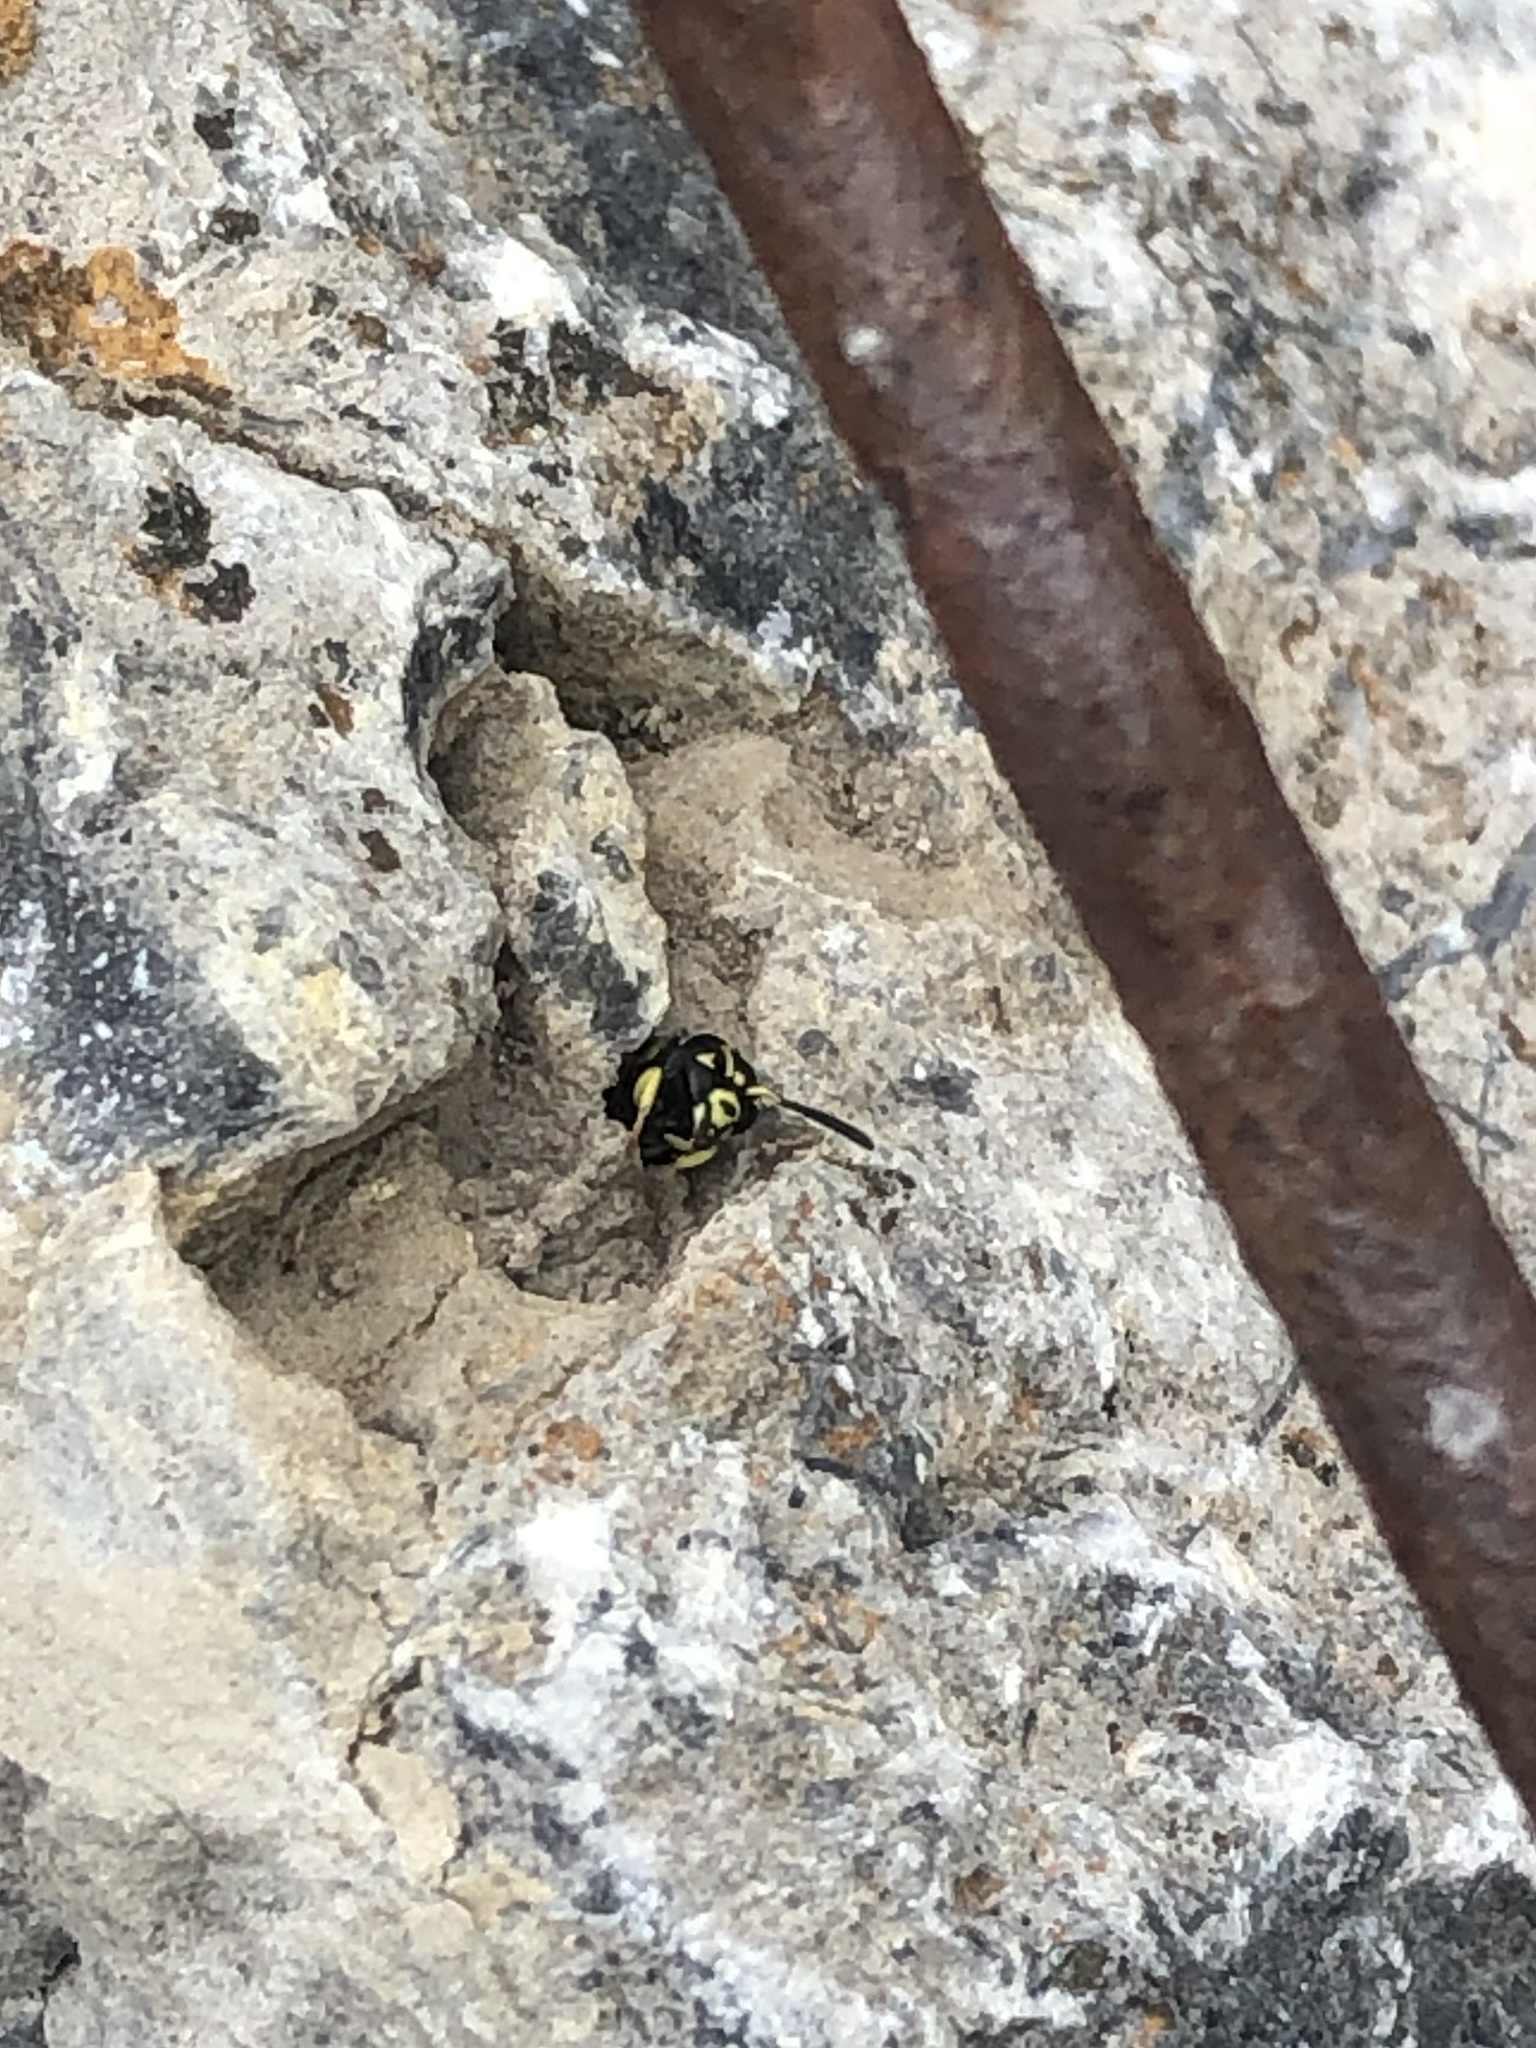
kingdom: Animalia
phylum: Arthropoda
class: Insecta
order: Hymenoptera
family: Eumenidae
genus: Rhynchalastor
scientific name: Rhynchalastor cochisensis
